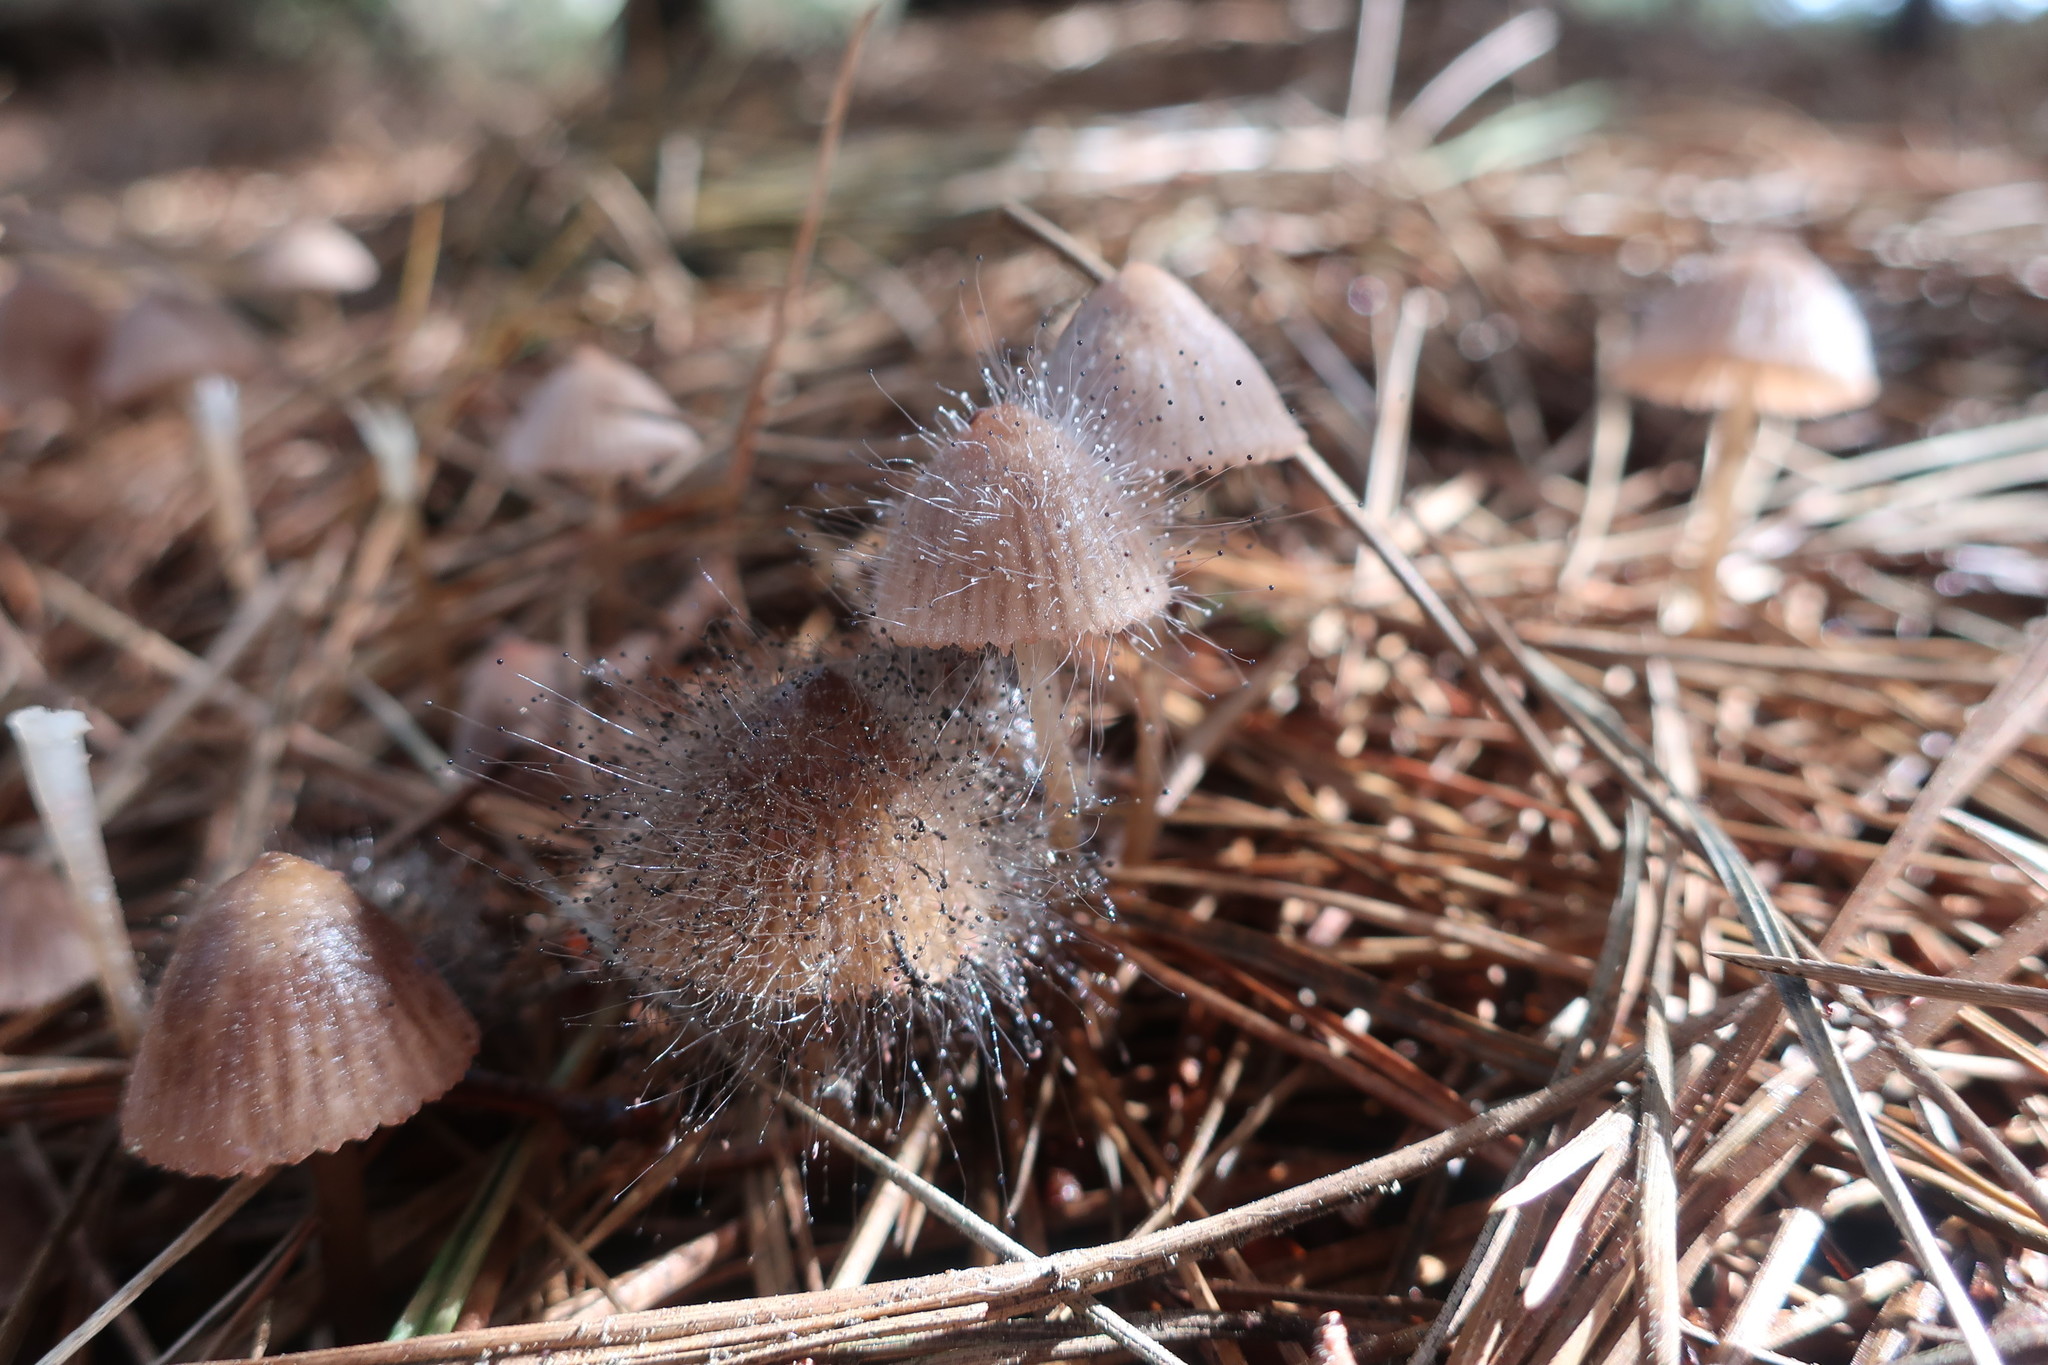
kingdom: Fungi
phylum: Mucoromycota
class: Mucoromycetes
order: Mucorales
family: Phycomycetaceae
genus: Spinellus
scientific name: Spinellus fusiger
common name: Bonnet mould
